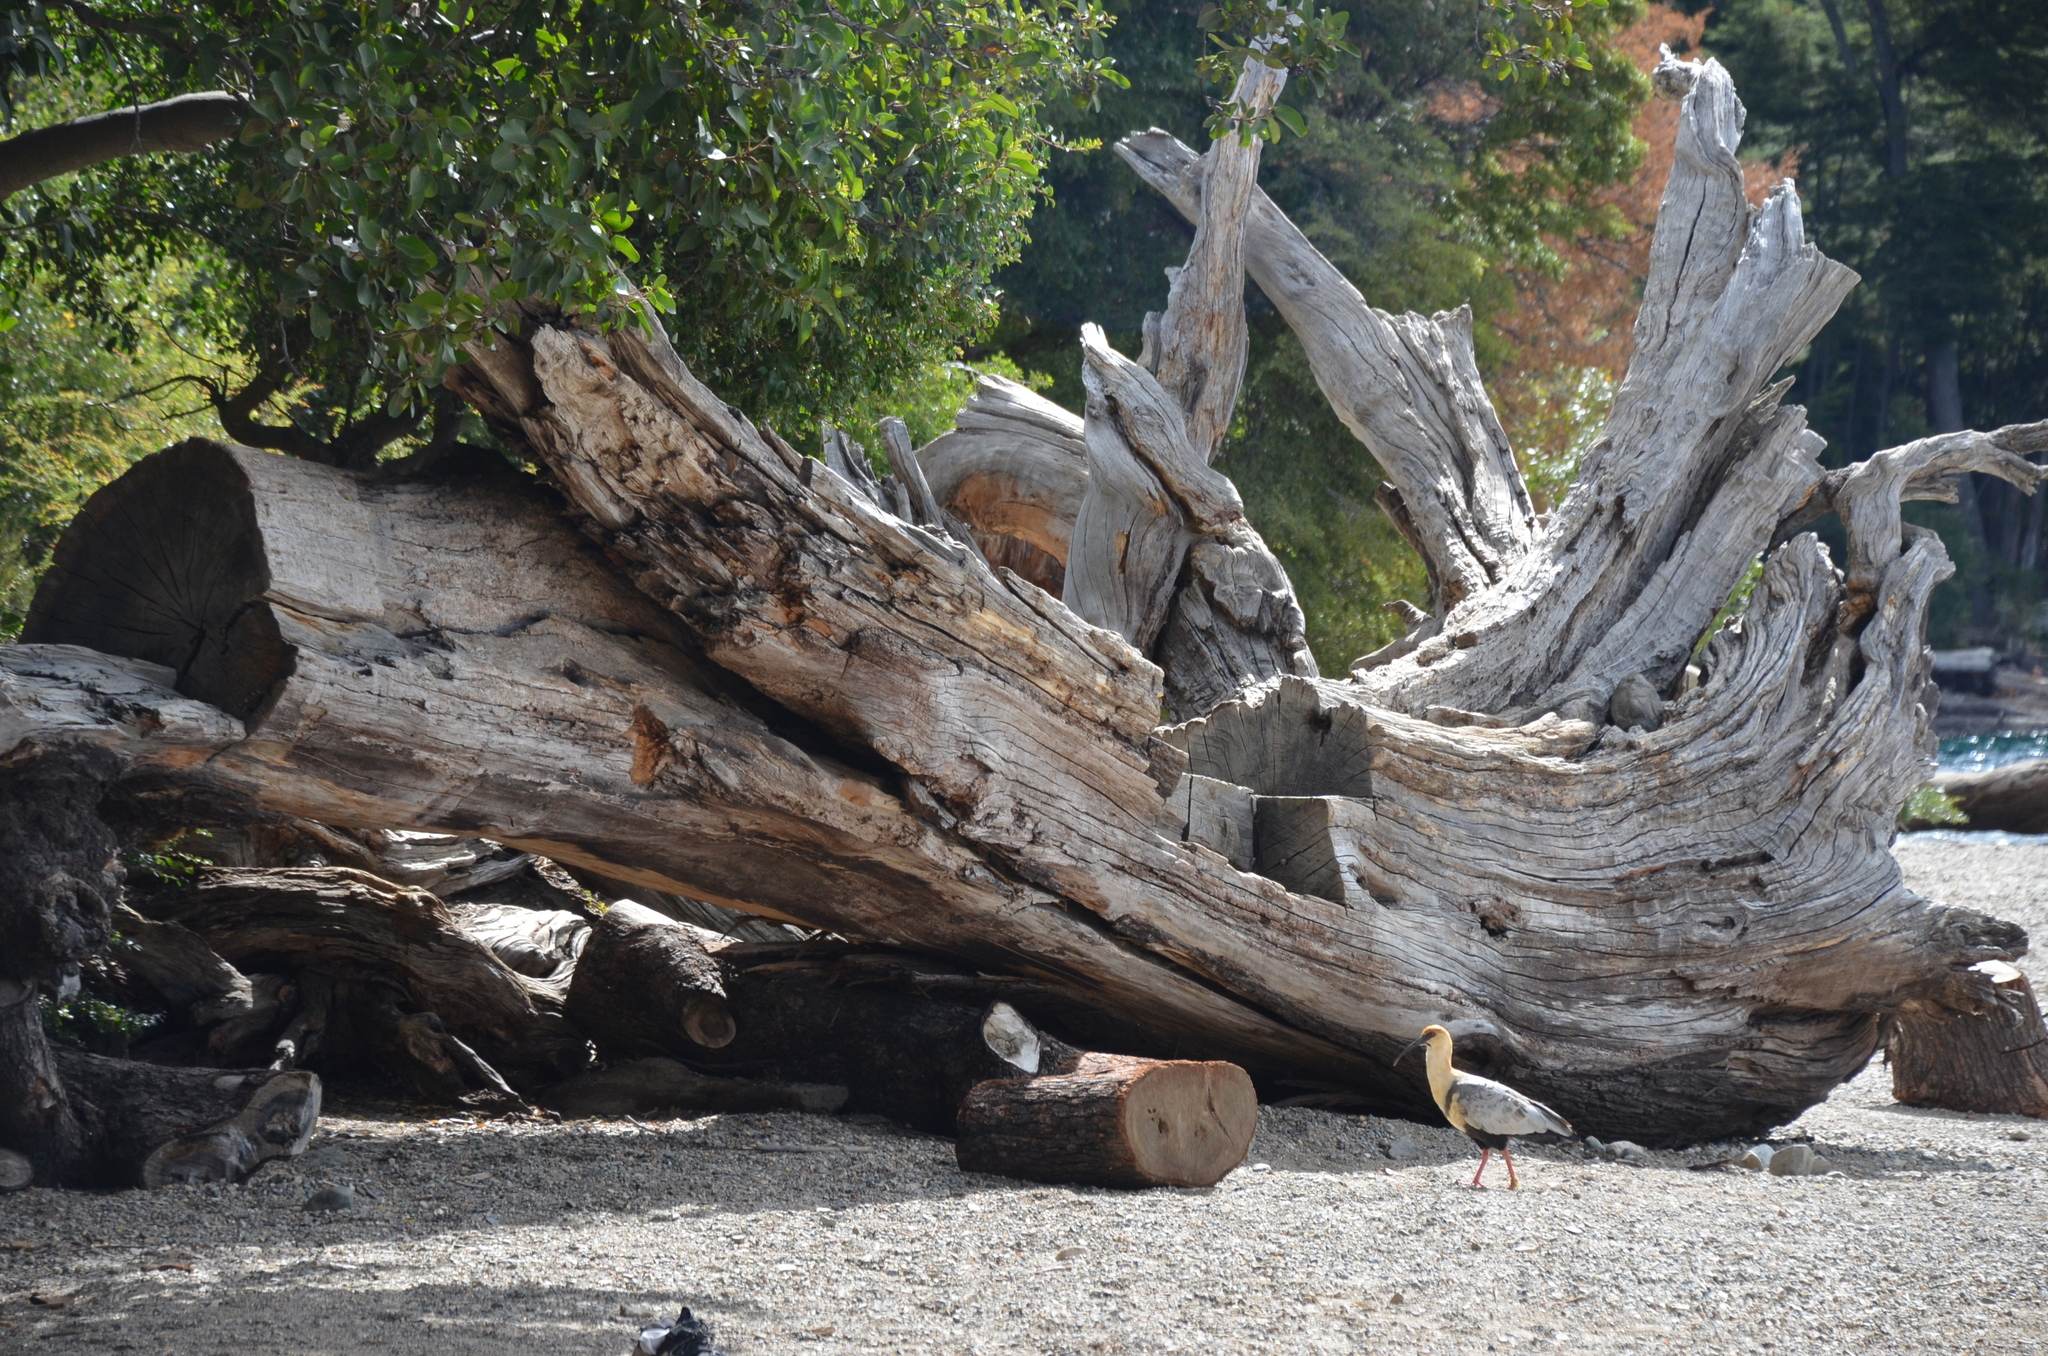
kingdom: Animalia
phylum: Chordata
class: Aves
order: Pelecaniformes
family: Threskiornithidae
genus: Theristicus
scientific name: Theristicus melanopis
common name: Black-faced ibis
